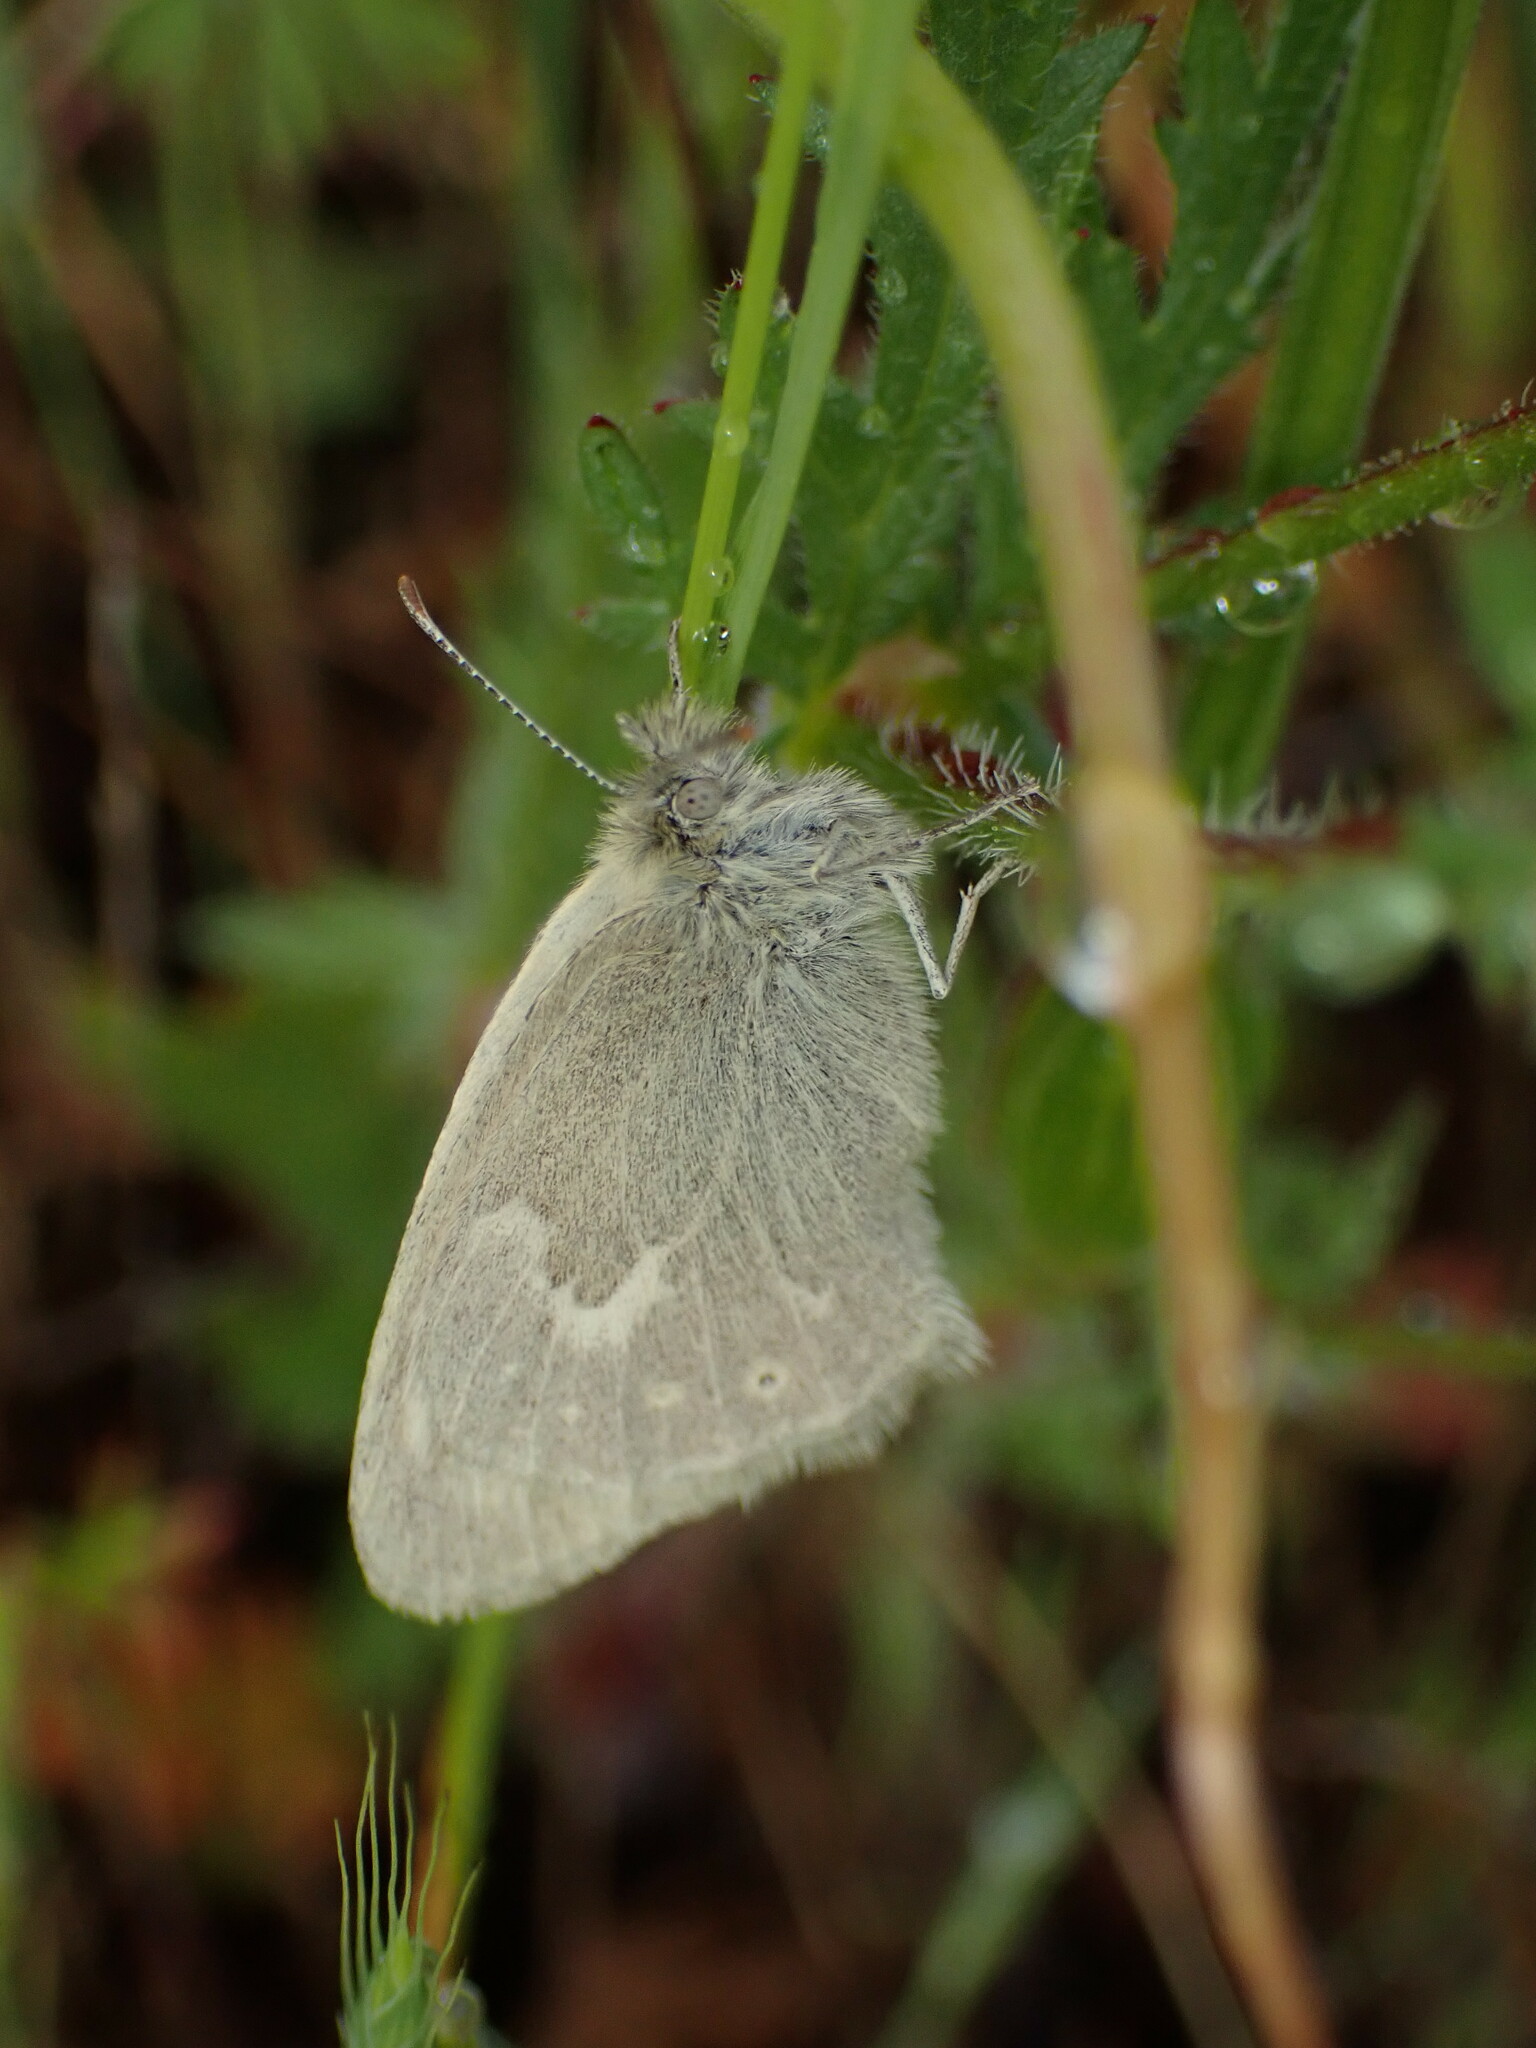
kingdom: Animalia
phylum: Arthropoda
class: Insecta
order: Lepidoptera
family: Nymphalidae
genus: Coenonympha
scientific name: Coenonympha california
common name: Common ringlet
